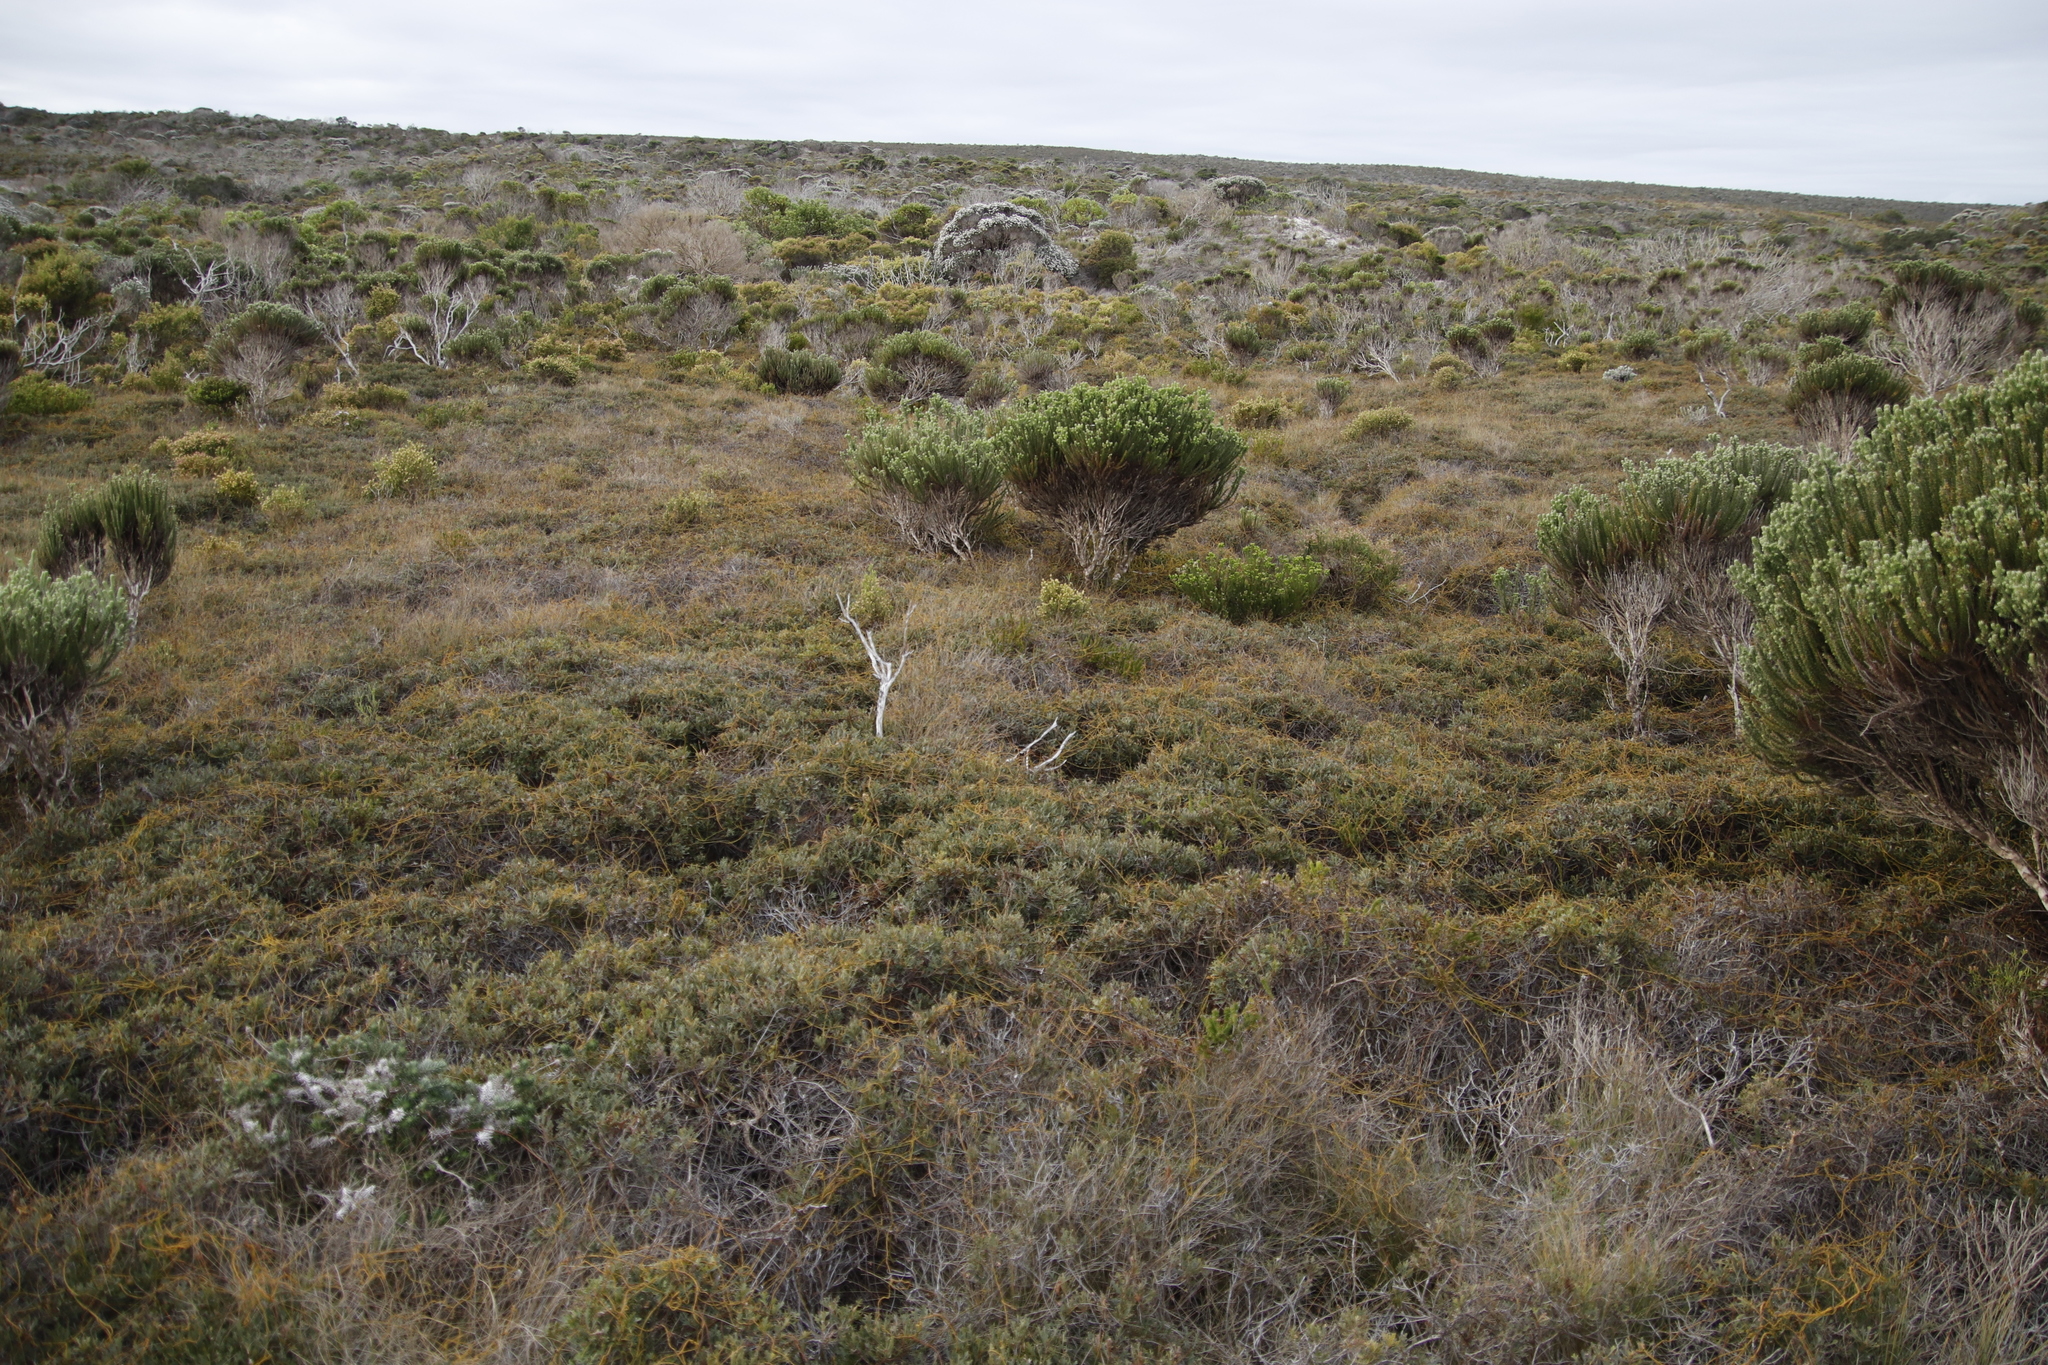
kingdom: Plantae
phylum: Tracheophyta
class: Magnoliopsida
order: Fagales
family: Myricaceae
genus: Morella
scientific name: Morella quercifolia
